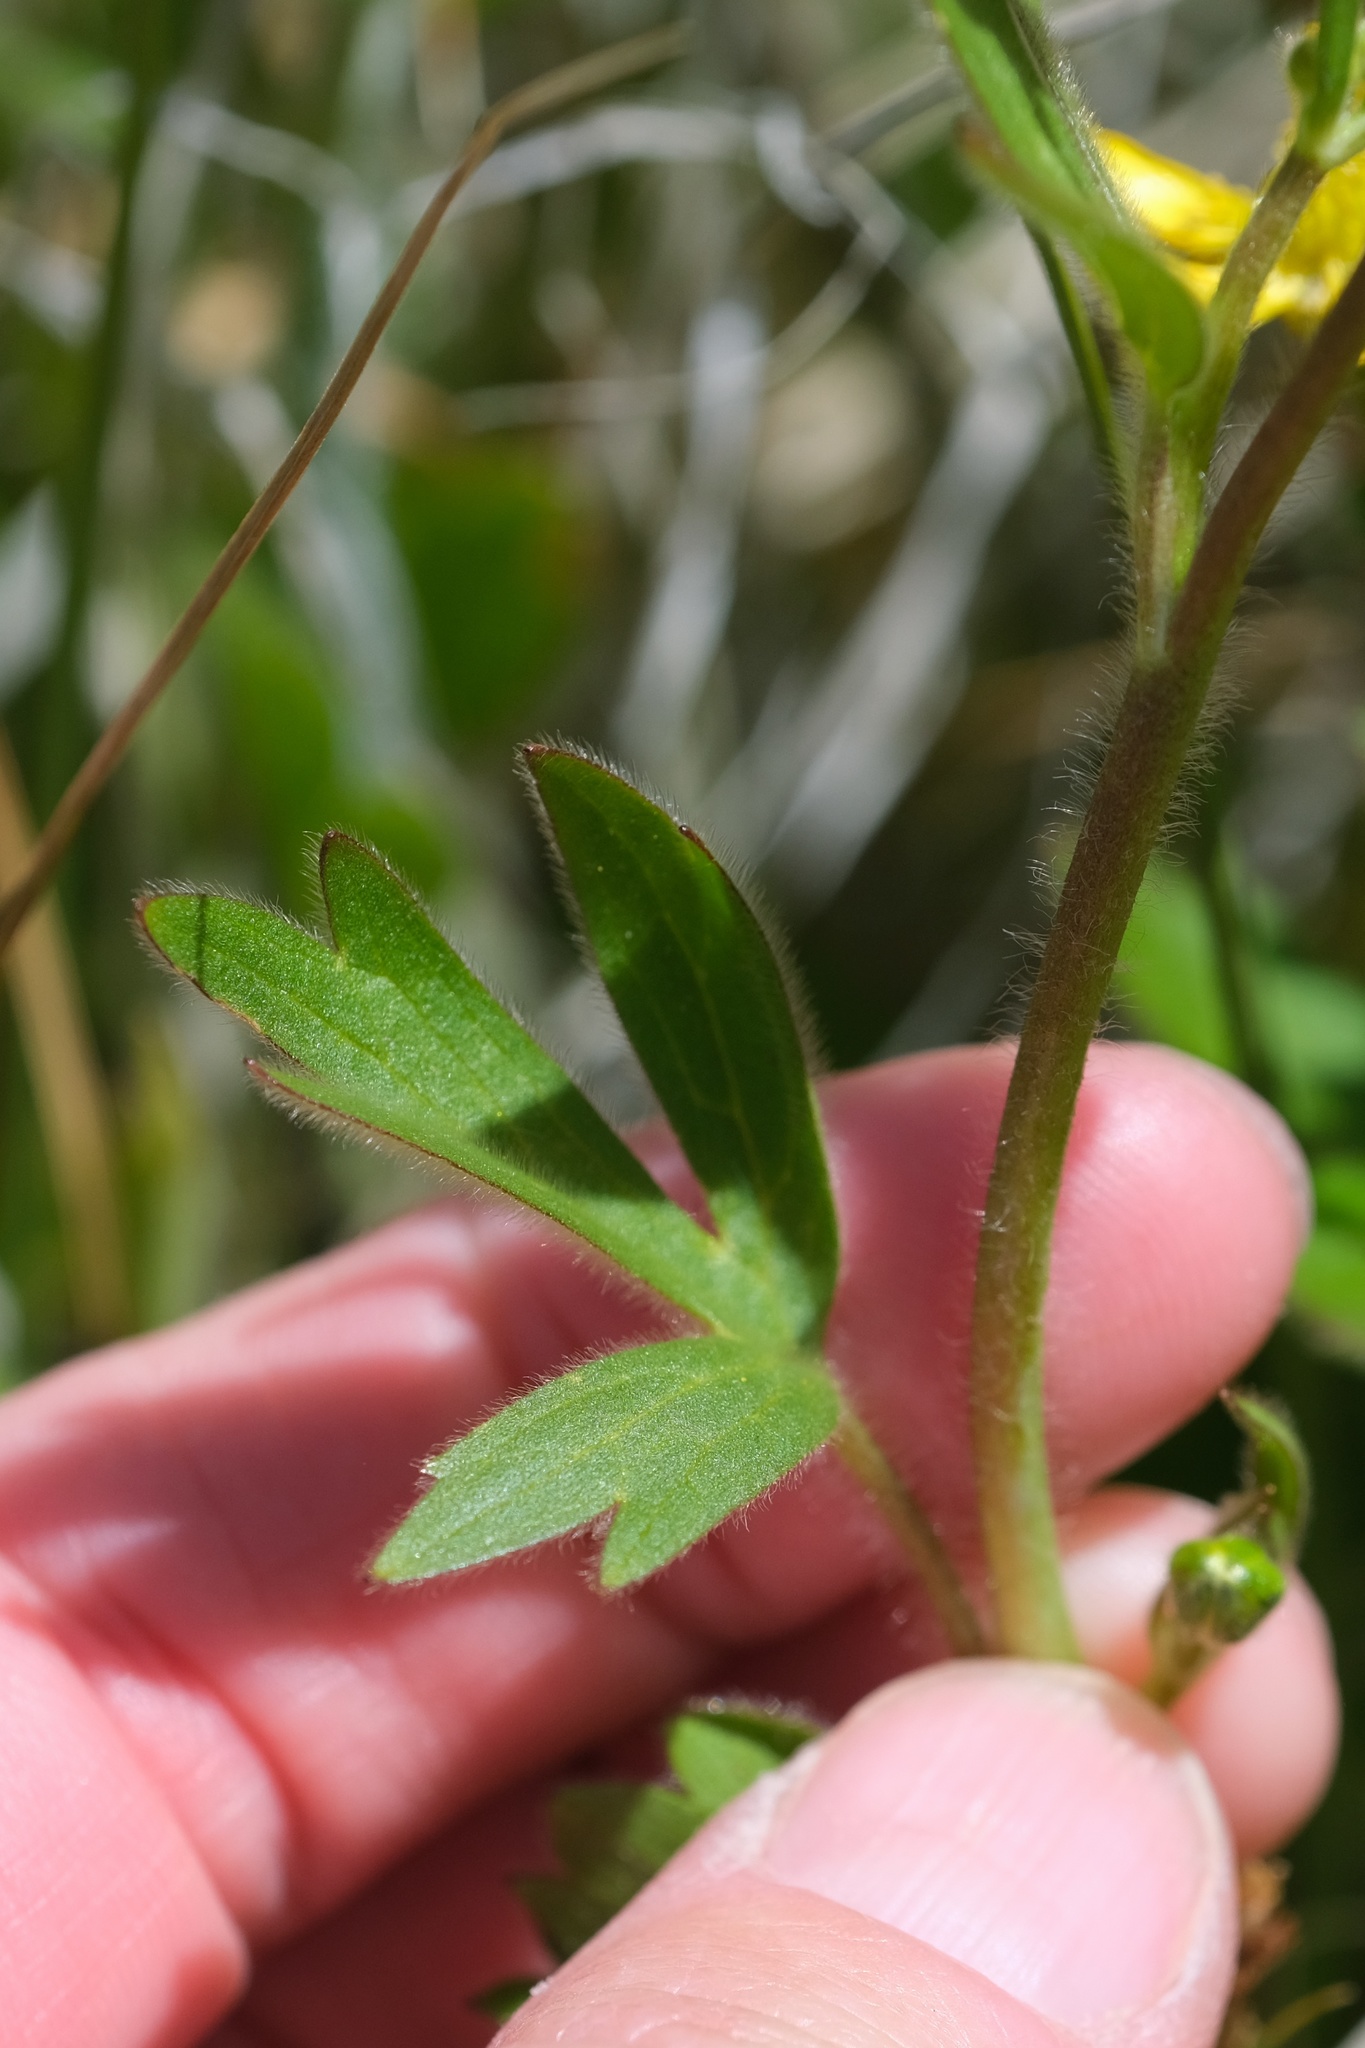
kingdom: Plantae
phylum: Tracheophyta
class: Magnoliopsida
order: Ranunculales
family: Ranunculaceae
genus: Ranunculus
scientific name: Ranunculus californicus
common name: California buttercup
